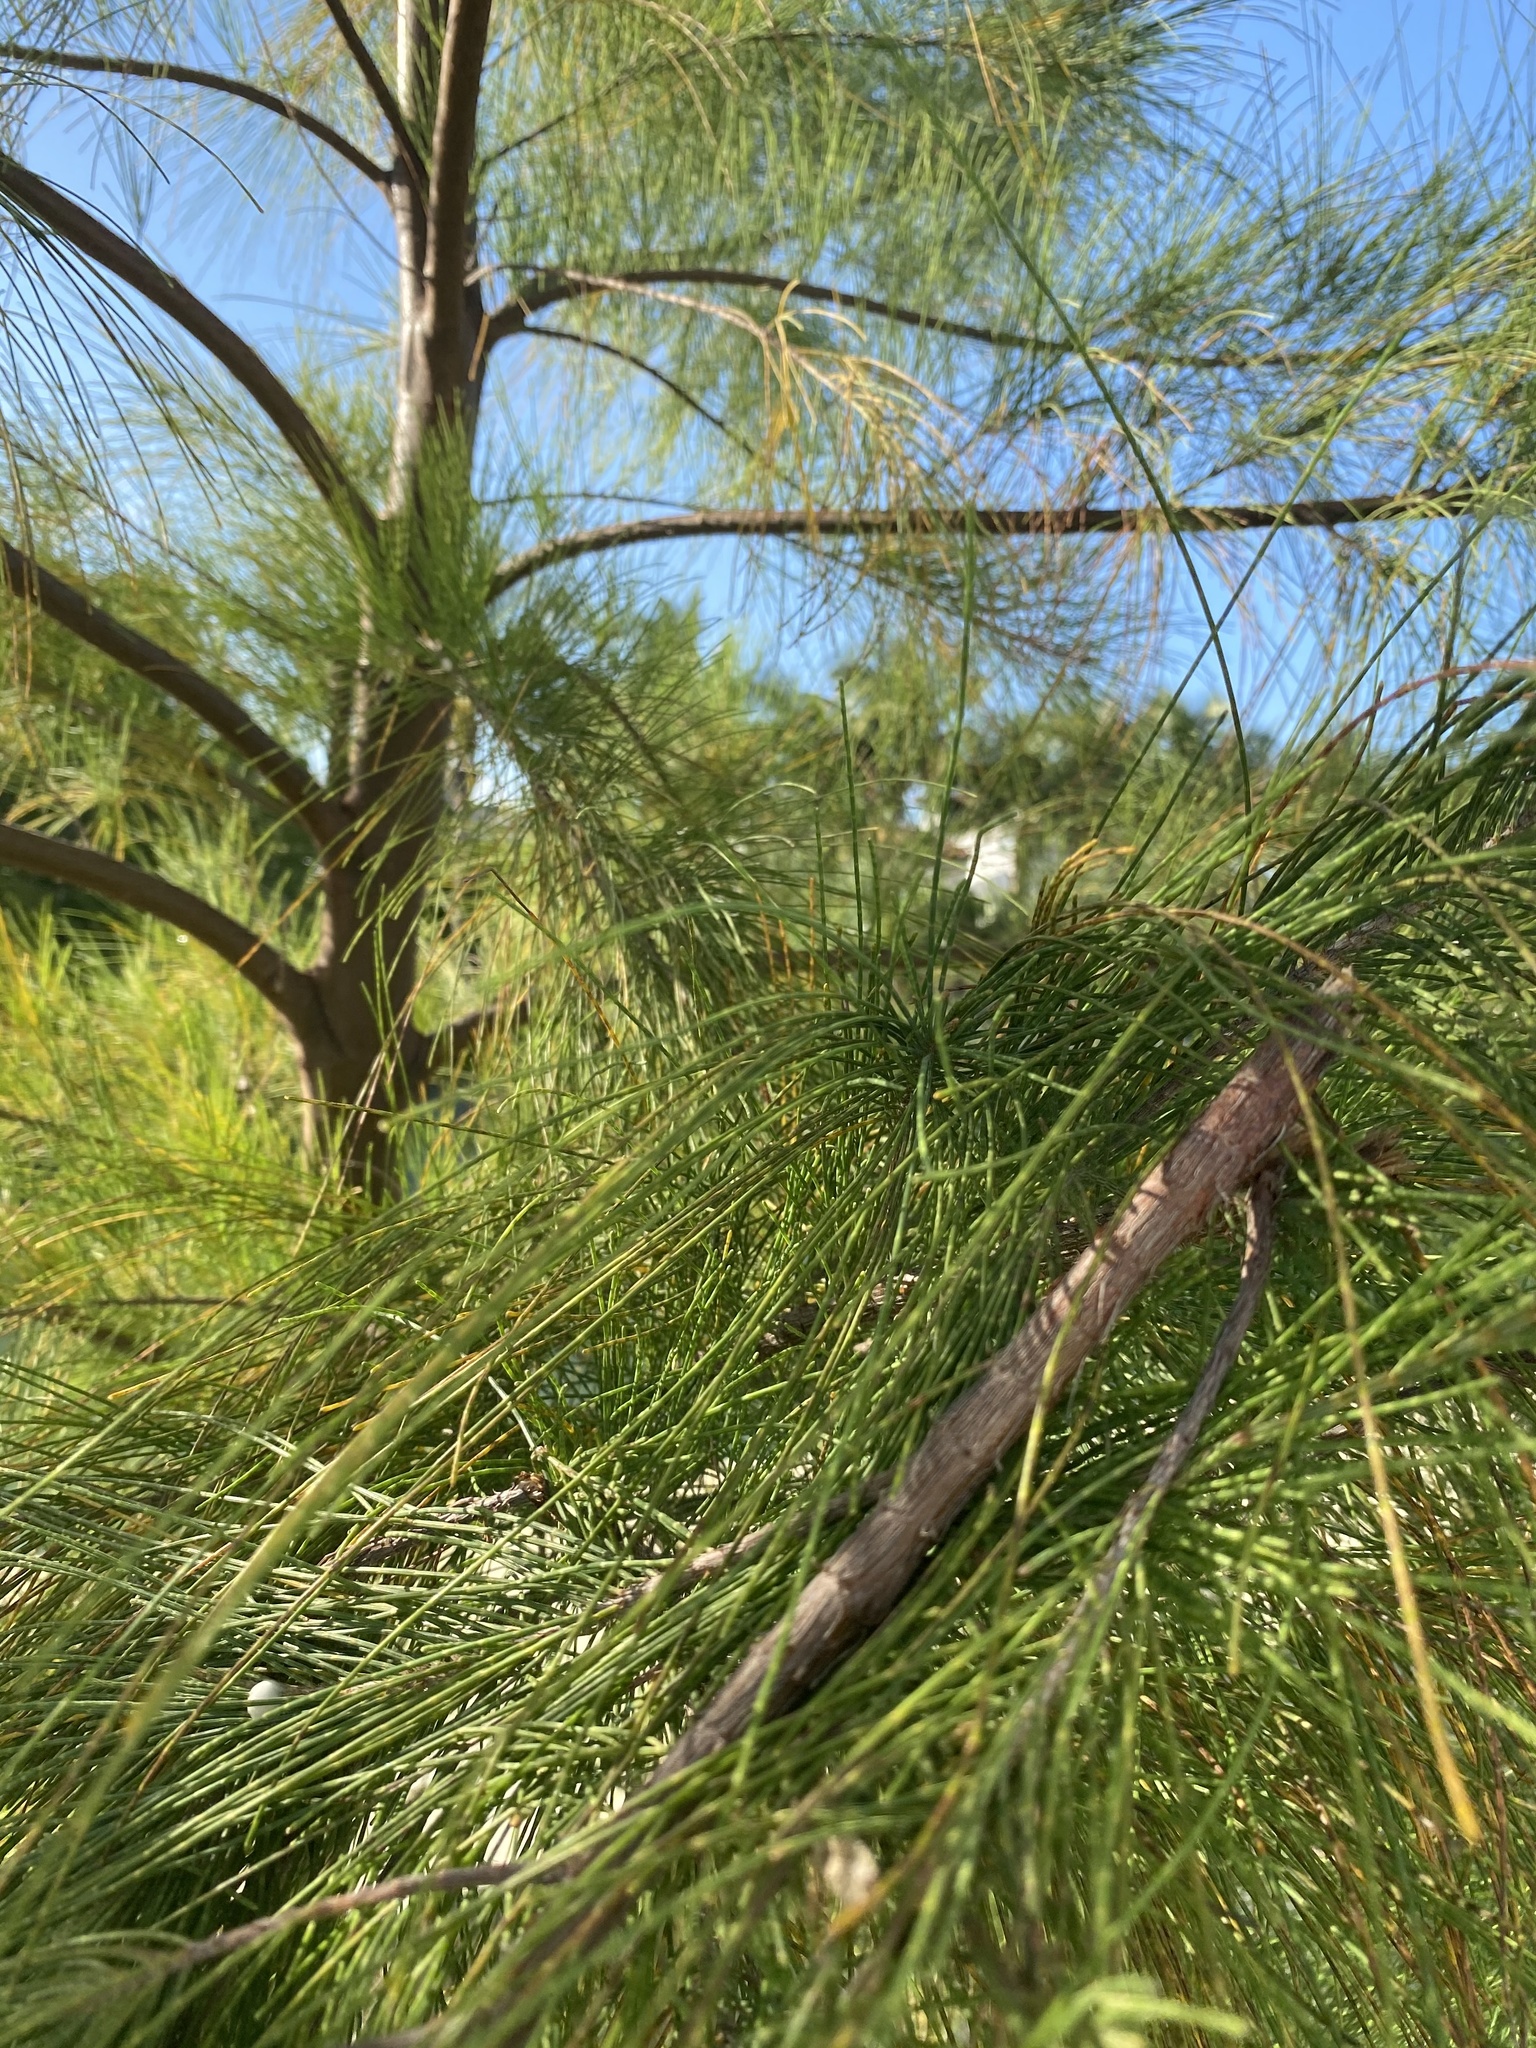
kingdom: Plantae
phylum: Tracheophyta
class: Magnoliopsida
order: Fagales
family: Casuarinaceae
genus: Casuarina
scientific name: Casuarina
